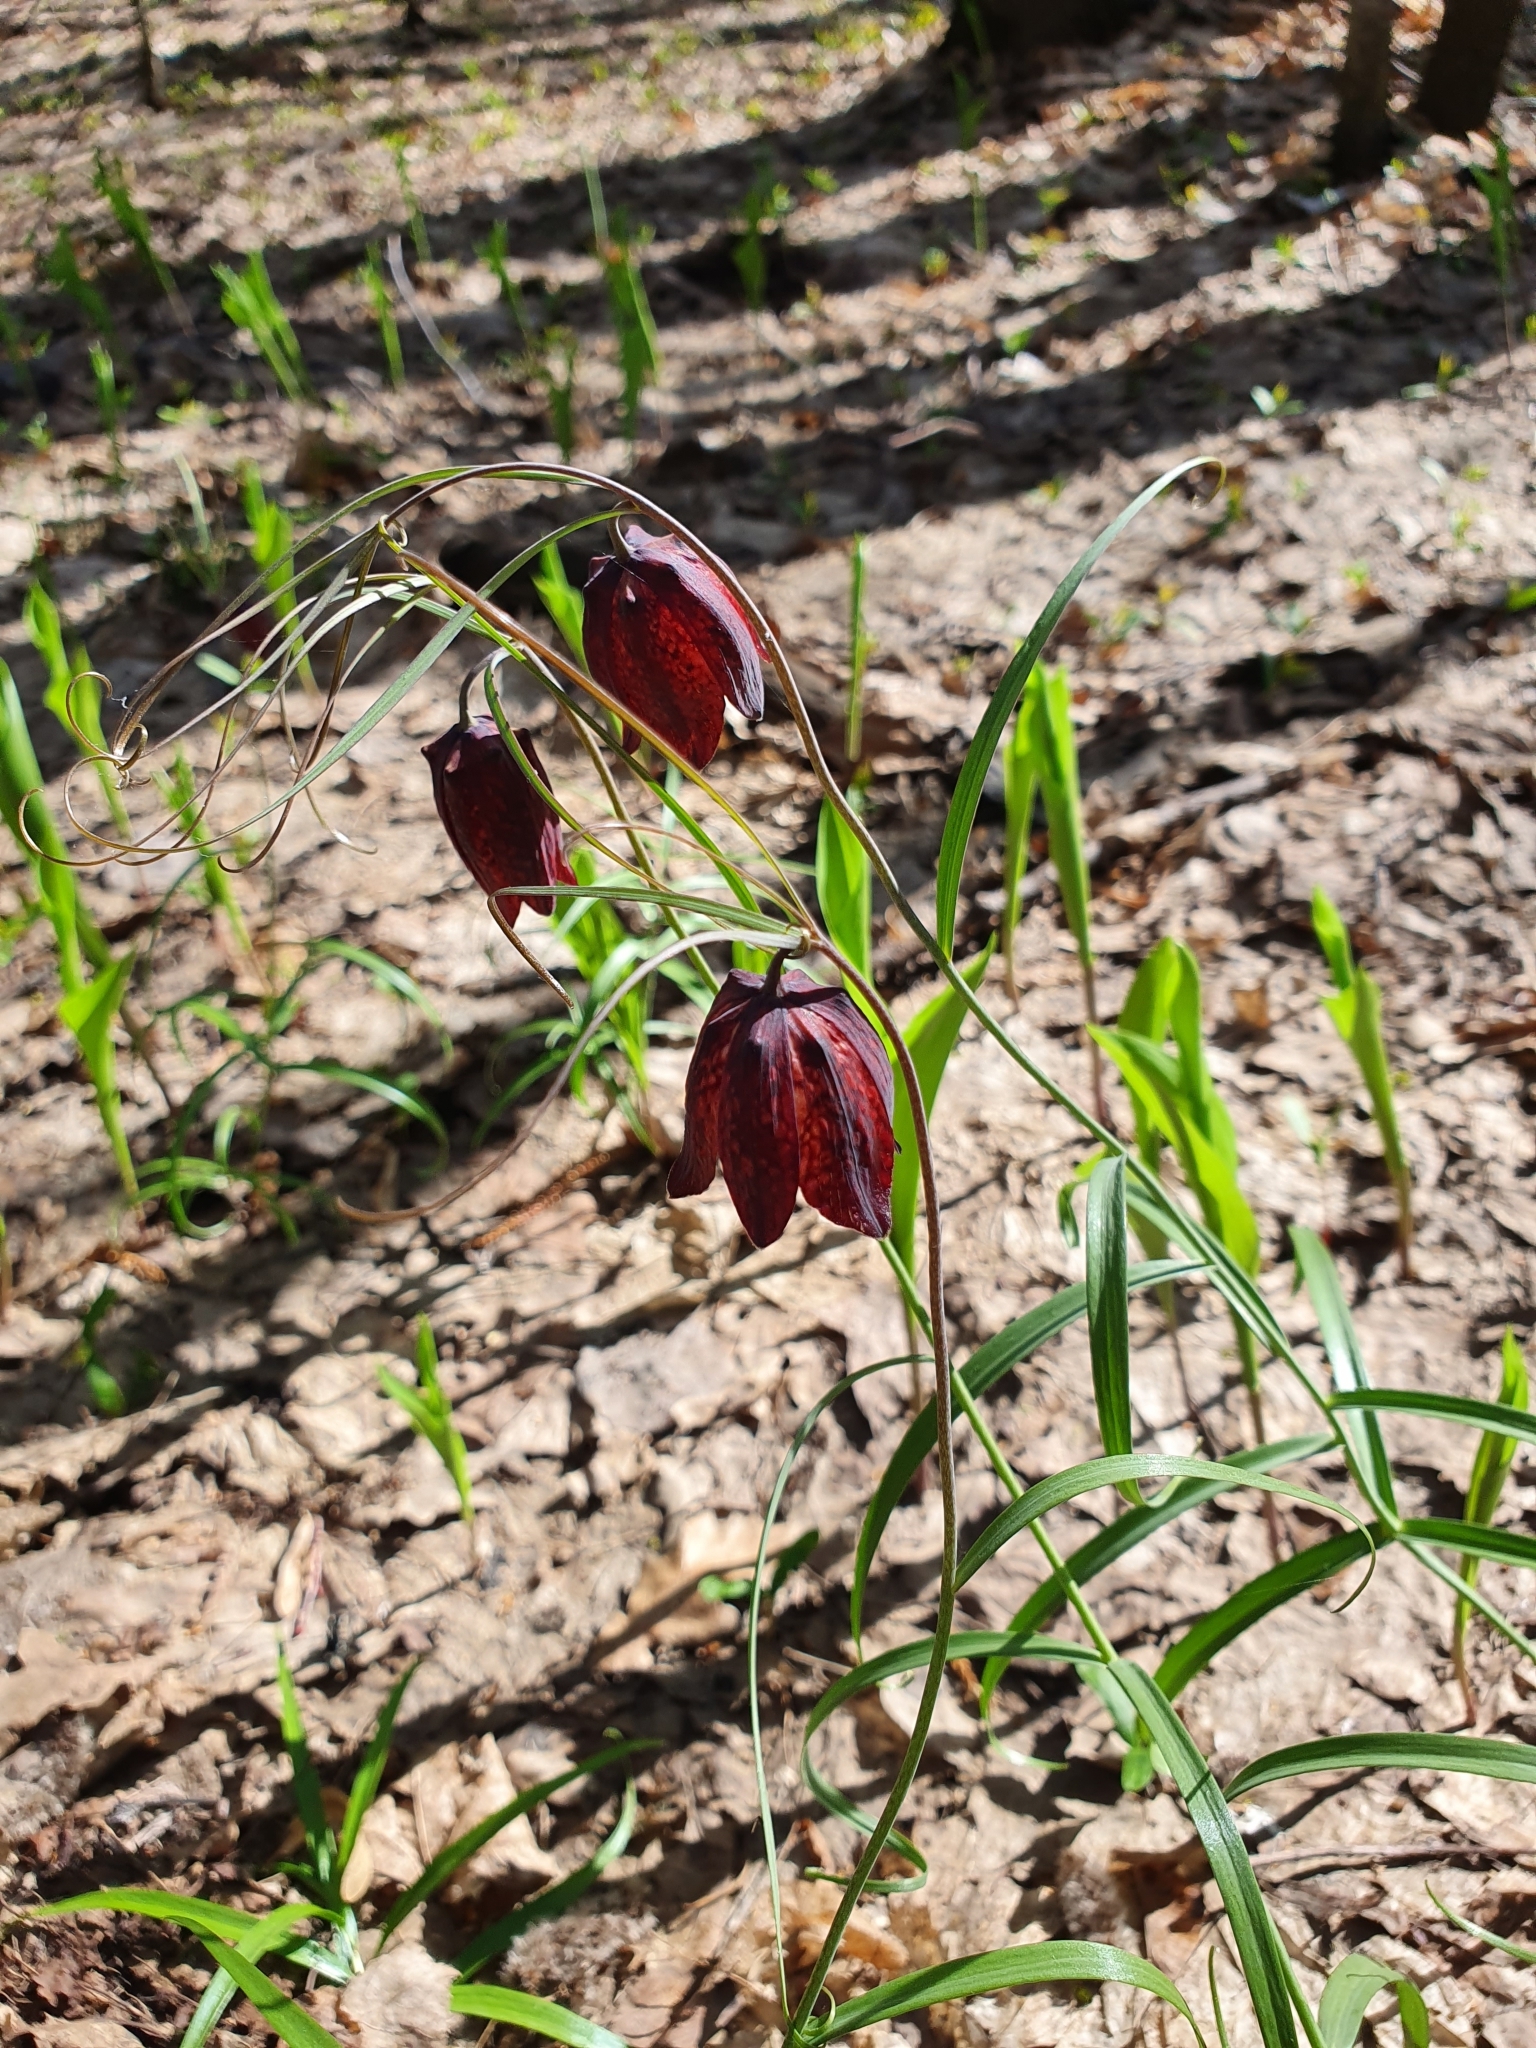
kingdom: Plantae
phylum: Tracheophyta
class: Liliopsida
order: Liliales
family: Liliaceae
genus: Fritillaria
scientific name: Fritillaria ruthenica
